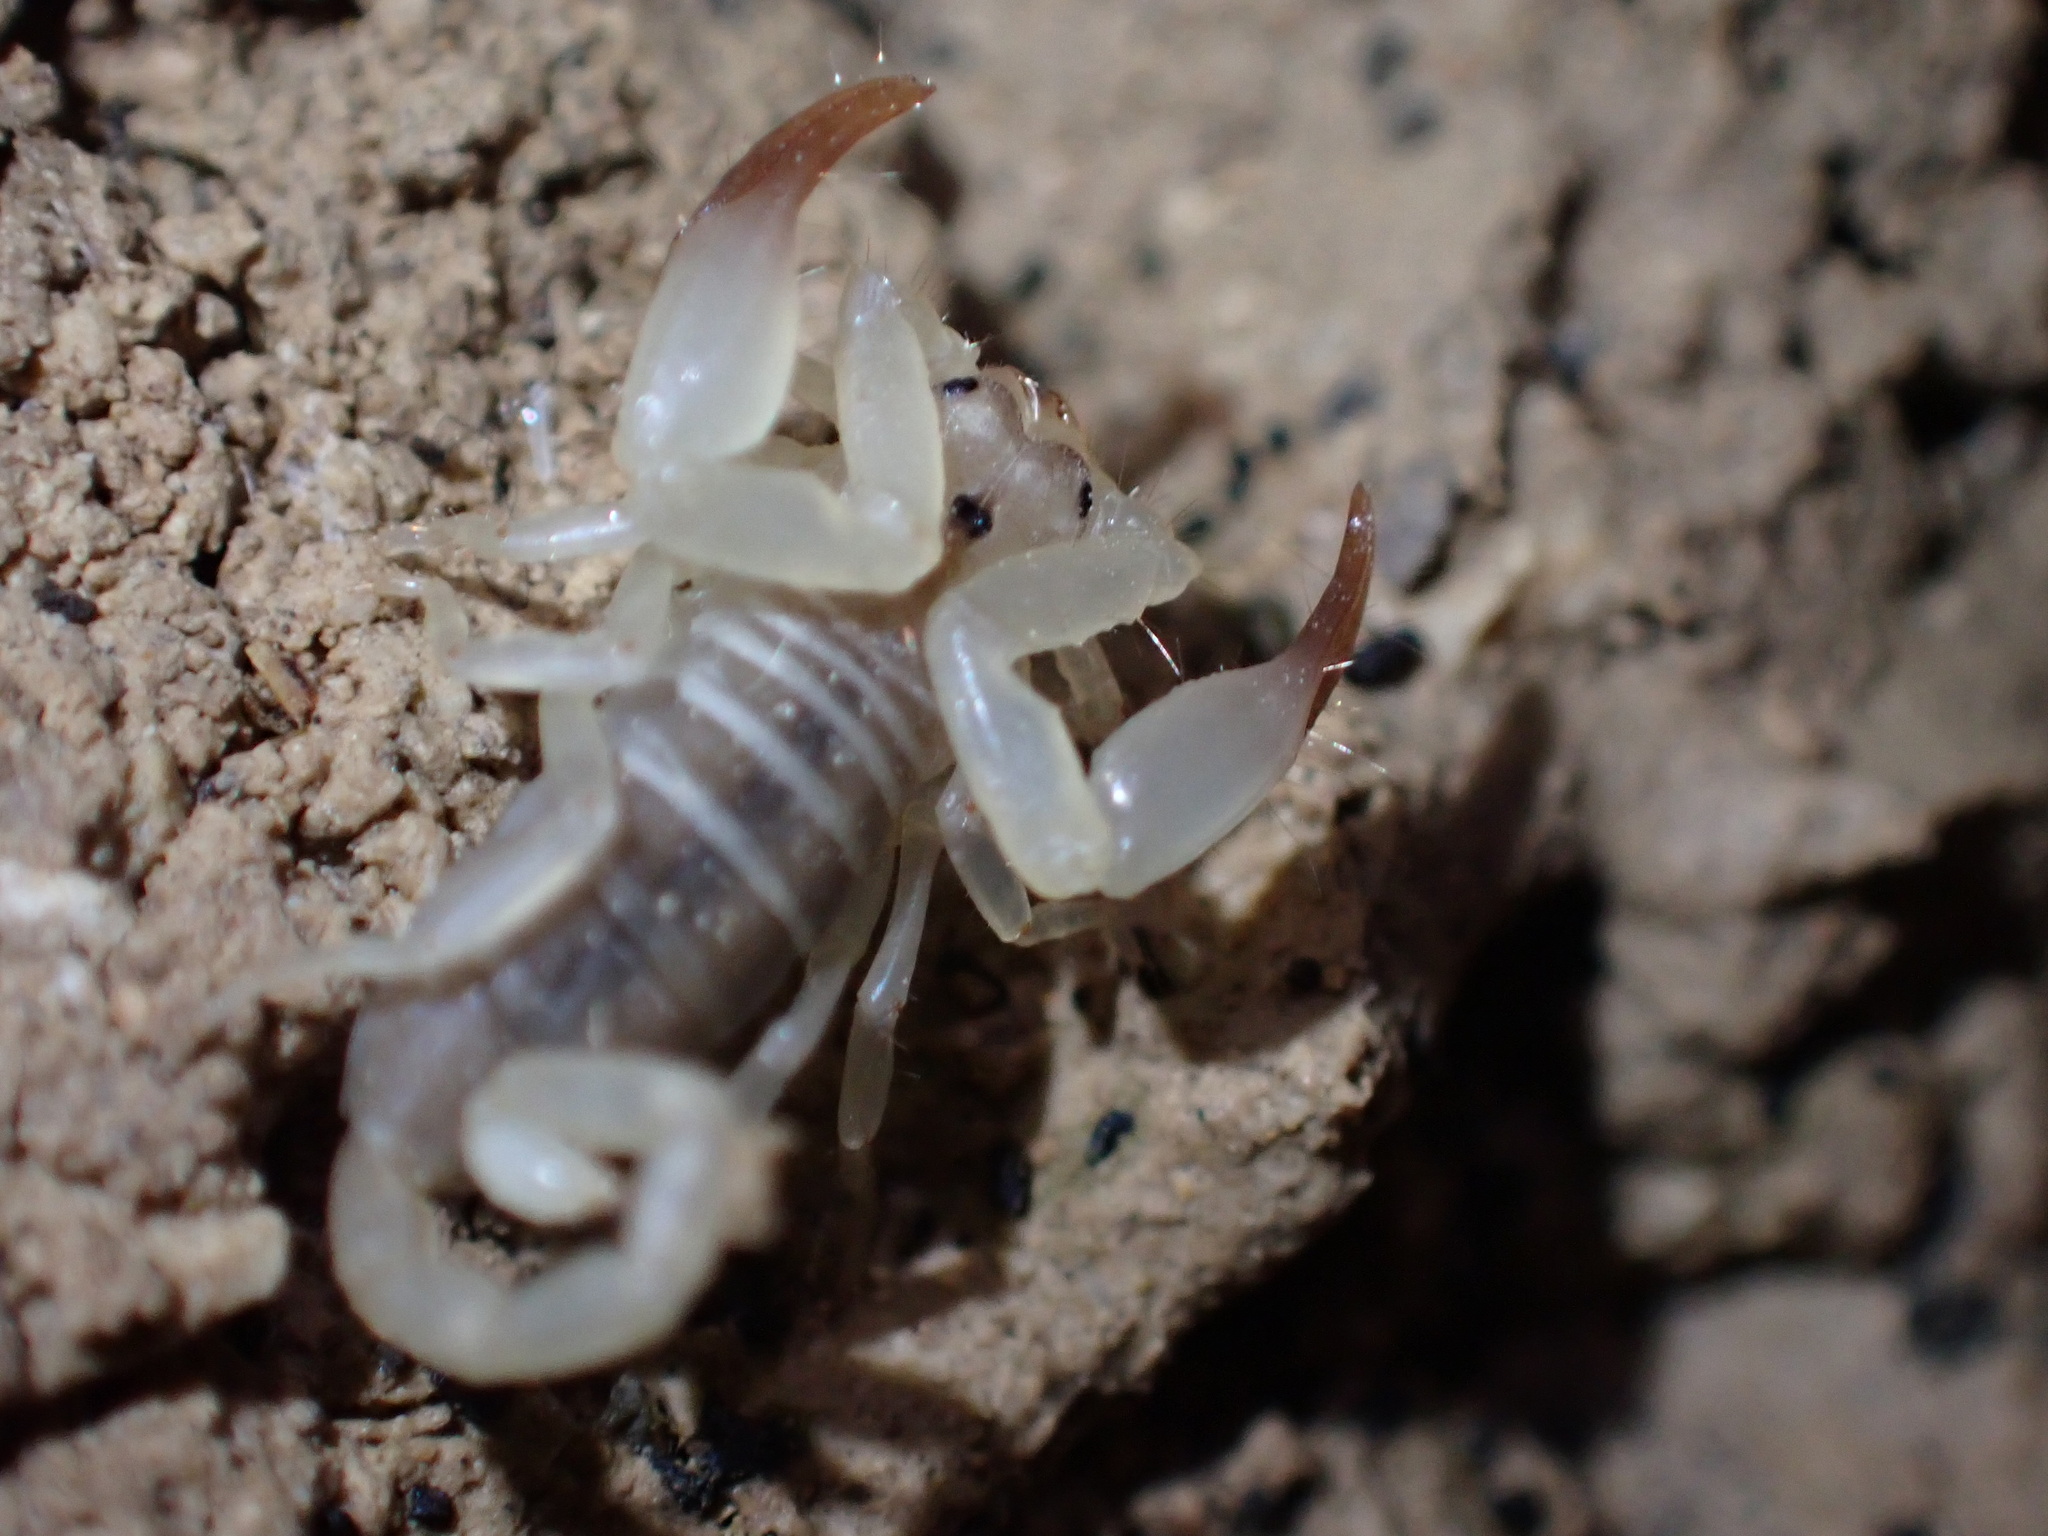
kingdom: Animalia
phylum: Arthropoda
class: Arachnida
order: Scorpiones
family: Hemiscorpiidae
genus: Hemiscorpius
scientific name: Hemiscorpius lepturus
